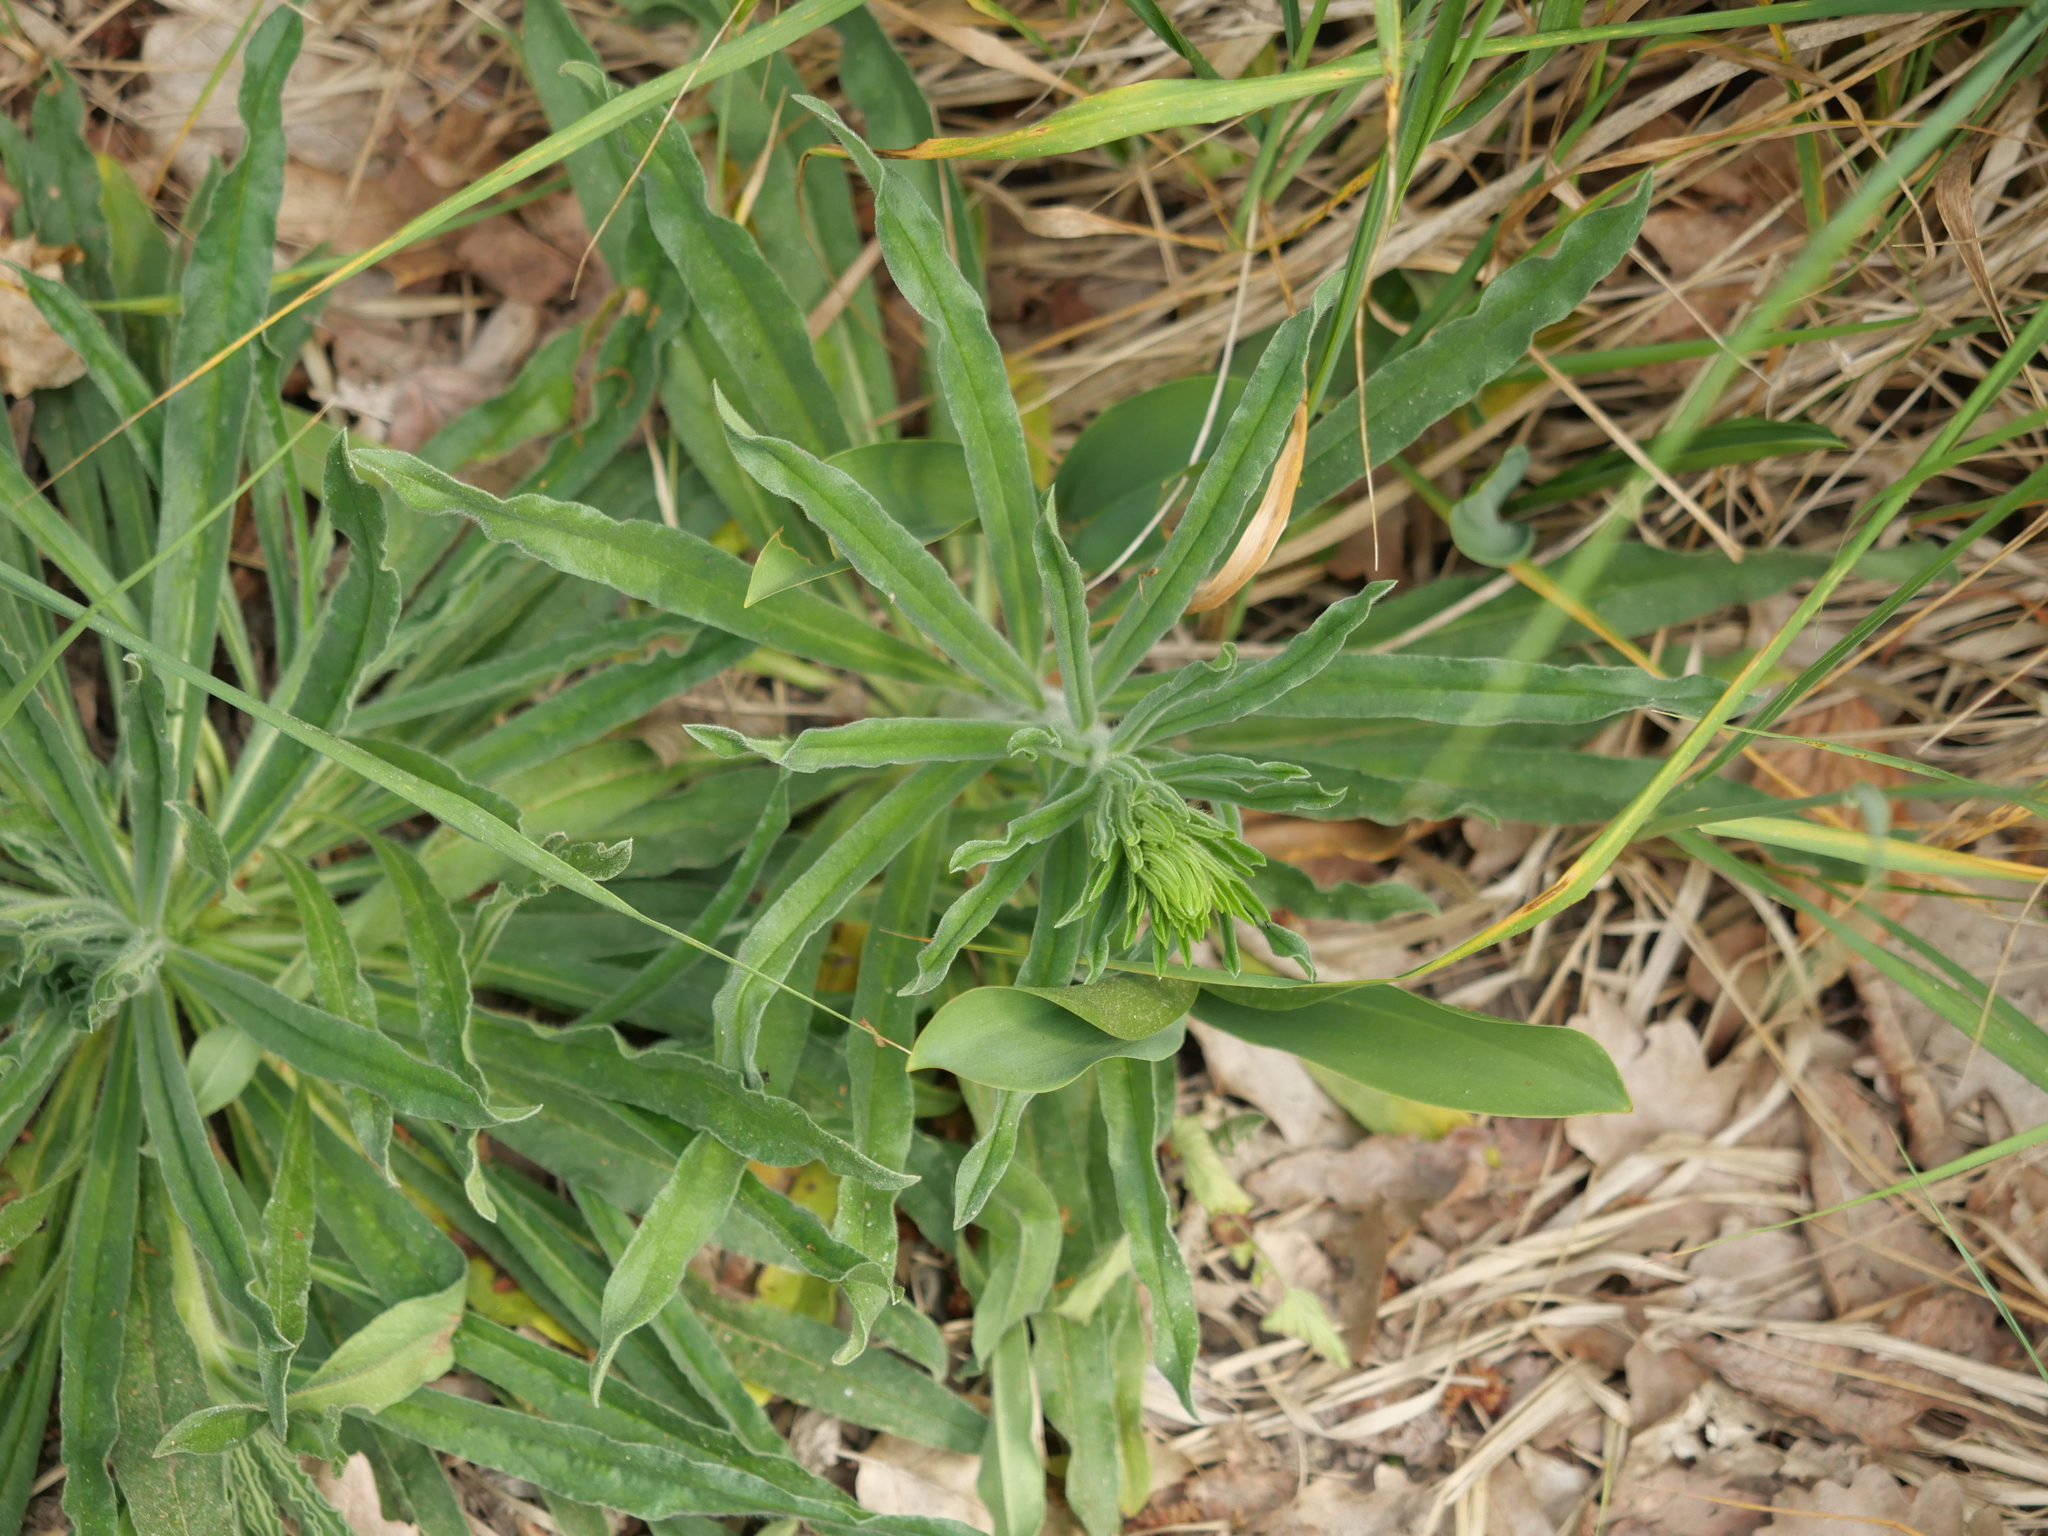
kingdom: Plantae
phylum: Tracheophyta
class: Magnoliopsida
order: Boraginales
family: Boraginaceae
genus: Echium
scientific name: Echium vulgare
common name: Common viper's bugloss
